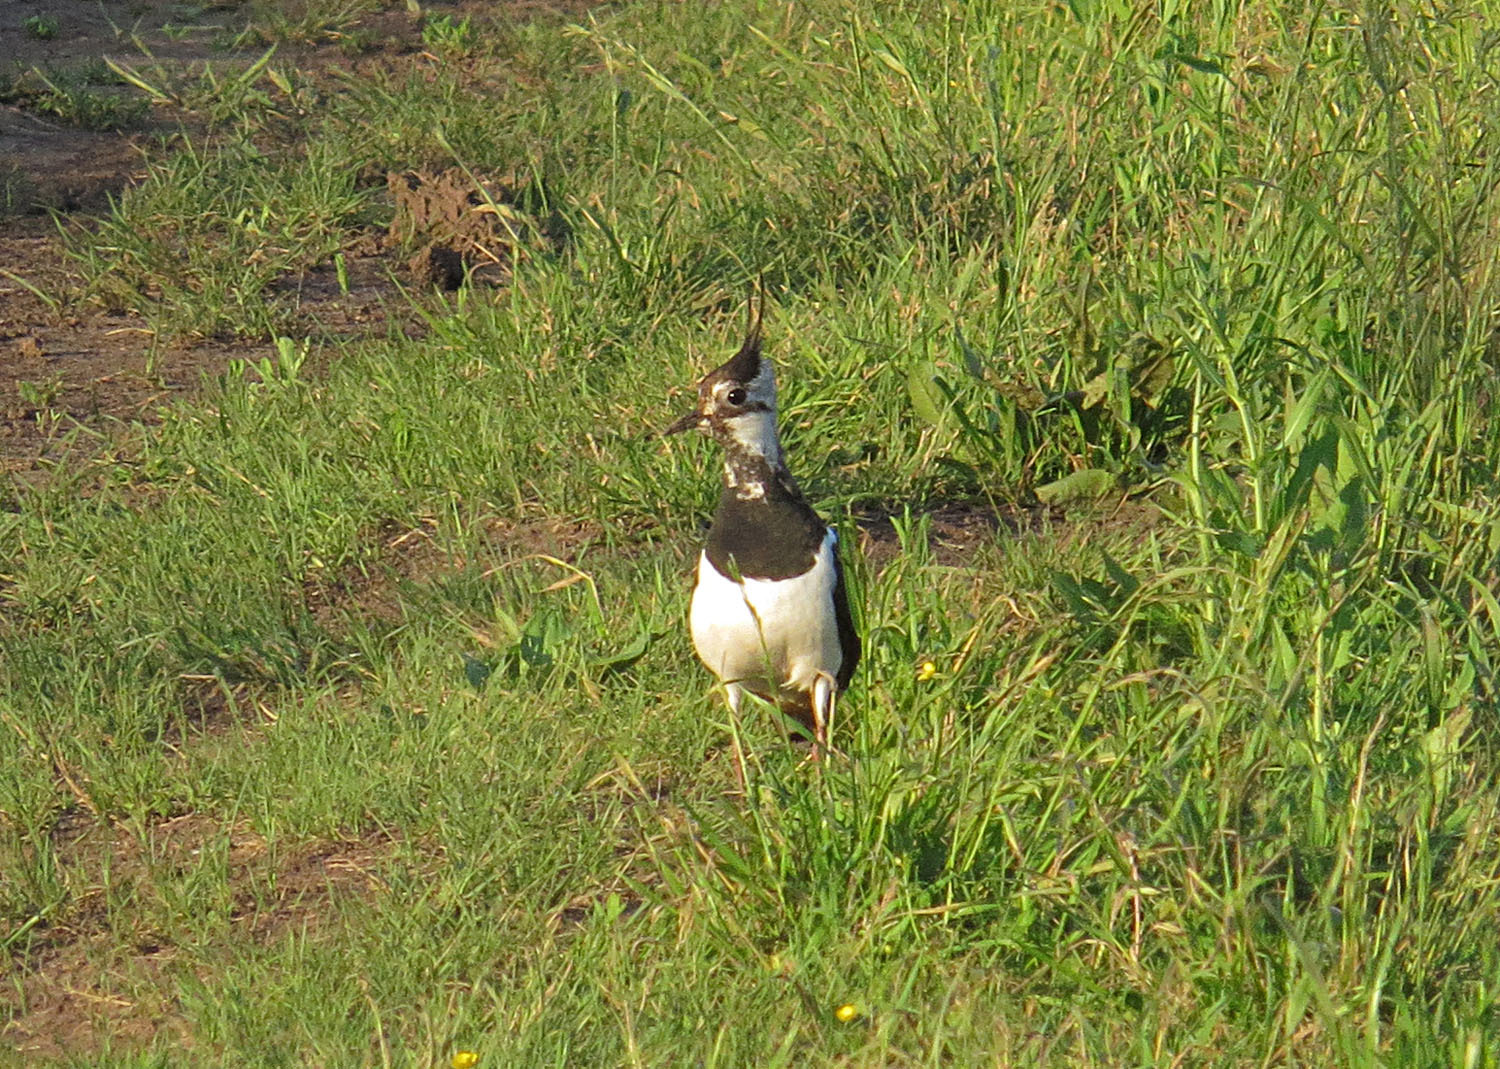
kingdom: Animalia
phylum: Chordata
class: Aves
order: Charadriiformes
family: Charadriidae
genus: Vanellus
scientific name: Vanellus vanellus
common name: Northern lapwing
